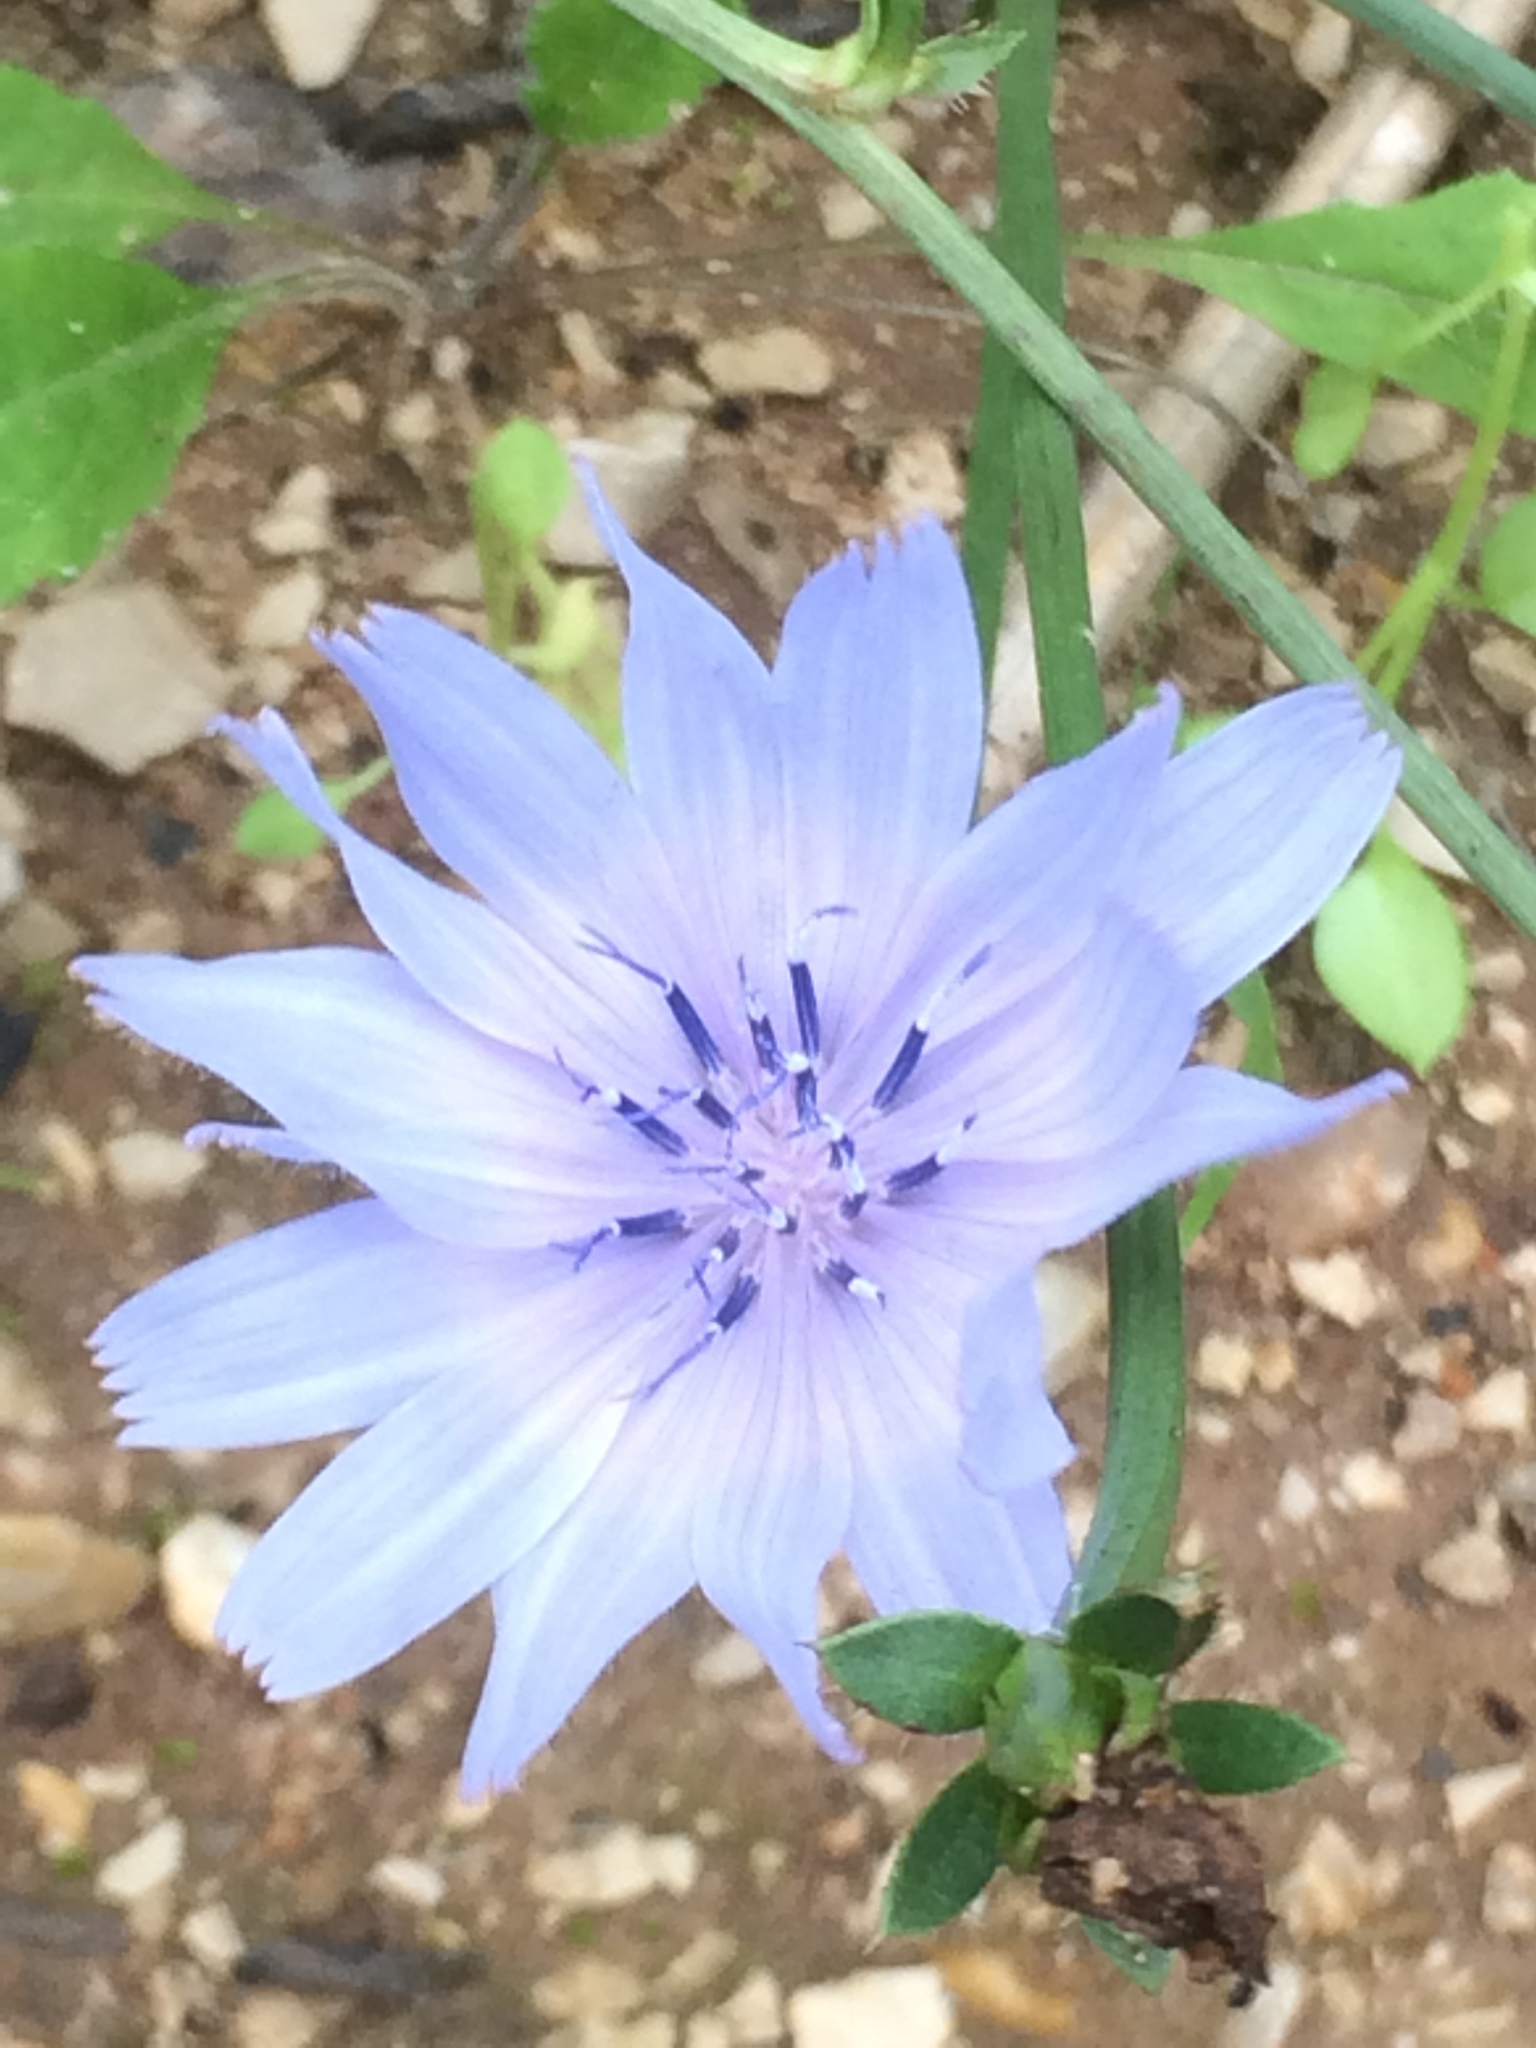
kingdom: Plantae
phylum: Tracheophyta
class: Magnoliopsida
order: Asterales
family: Asteraceae
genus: Cichorium
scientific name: Cichorium intybus
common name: Chicory
